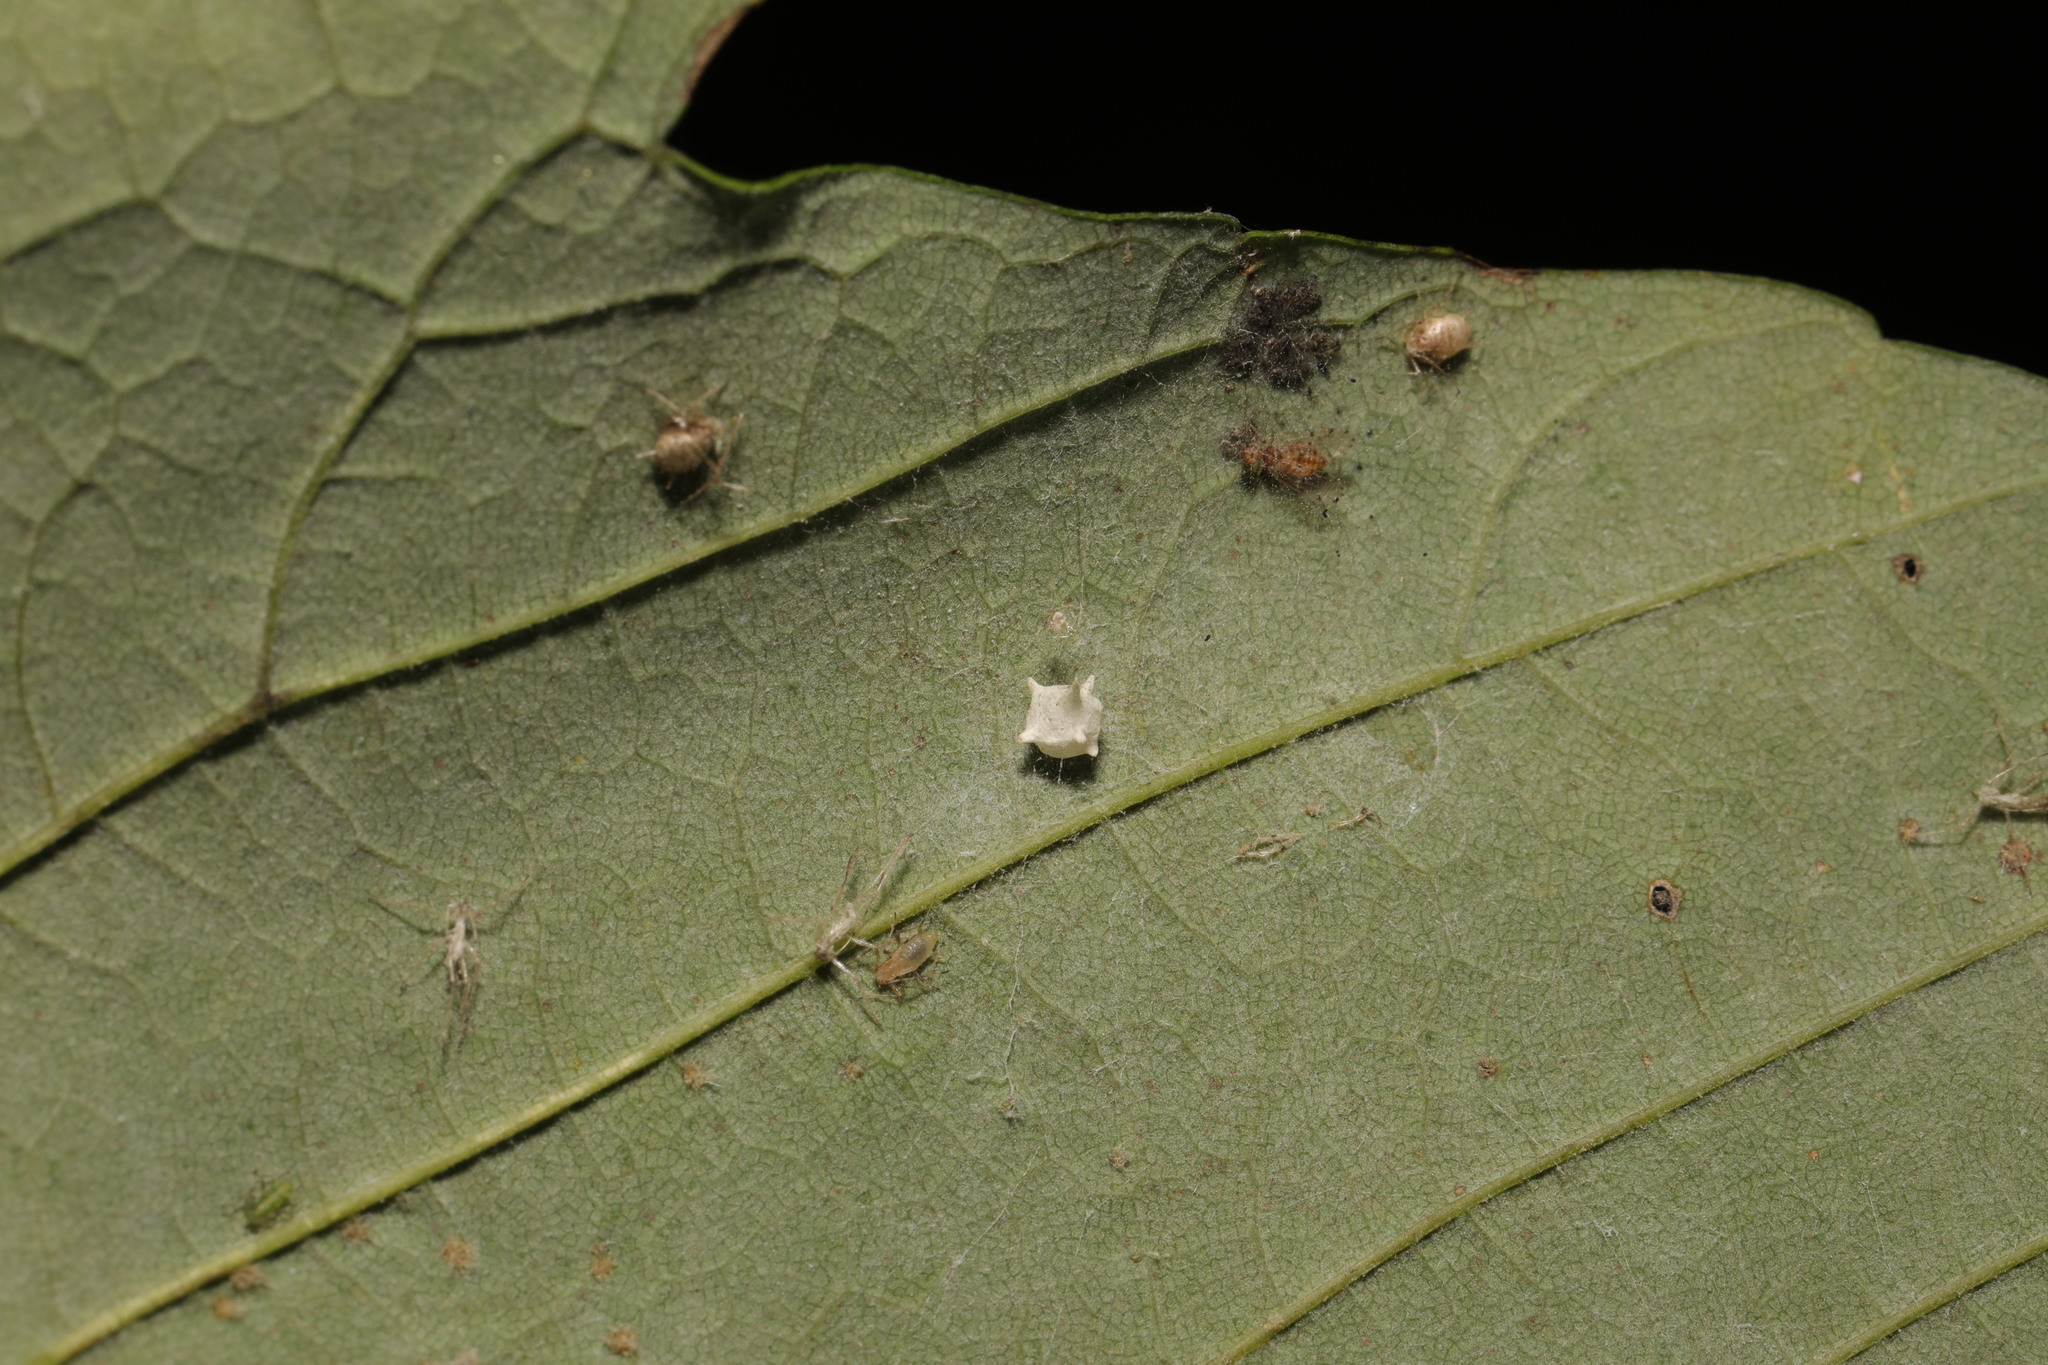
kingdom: Animalia
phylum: Arthropoda
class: Arachnida
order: Araneae
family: Theridiidae
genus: Paidiscura
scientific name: Paidiscura pallens
